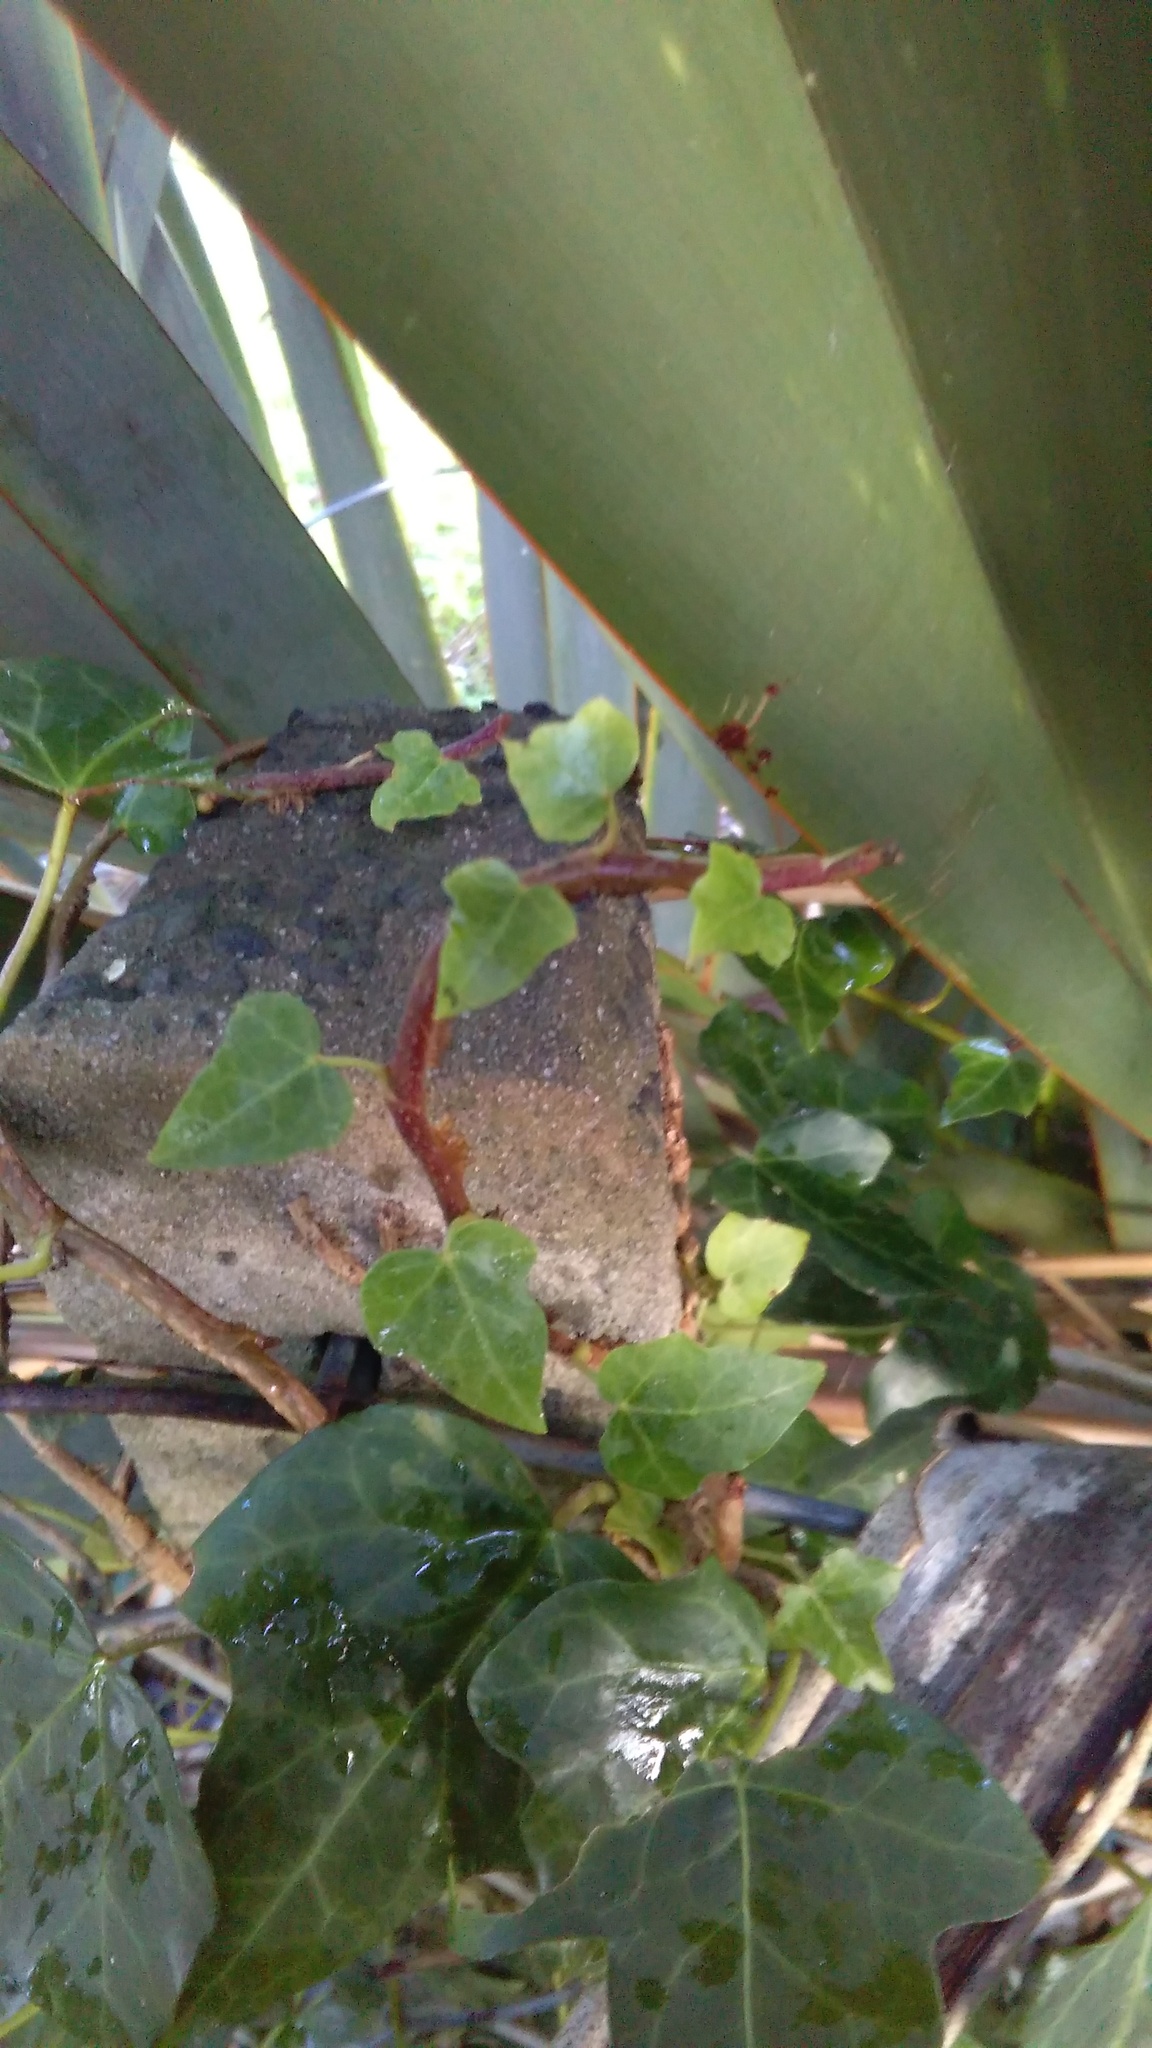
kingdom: Plantae
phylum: Tracheophyta
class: Magnoliopsida
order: Apiales
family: Araliaceae
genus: Hedera
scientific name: Hedera helix
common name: Ivy
